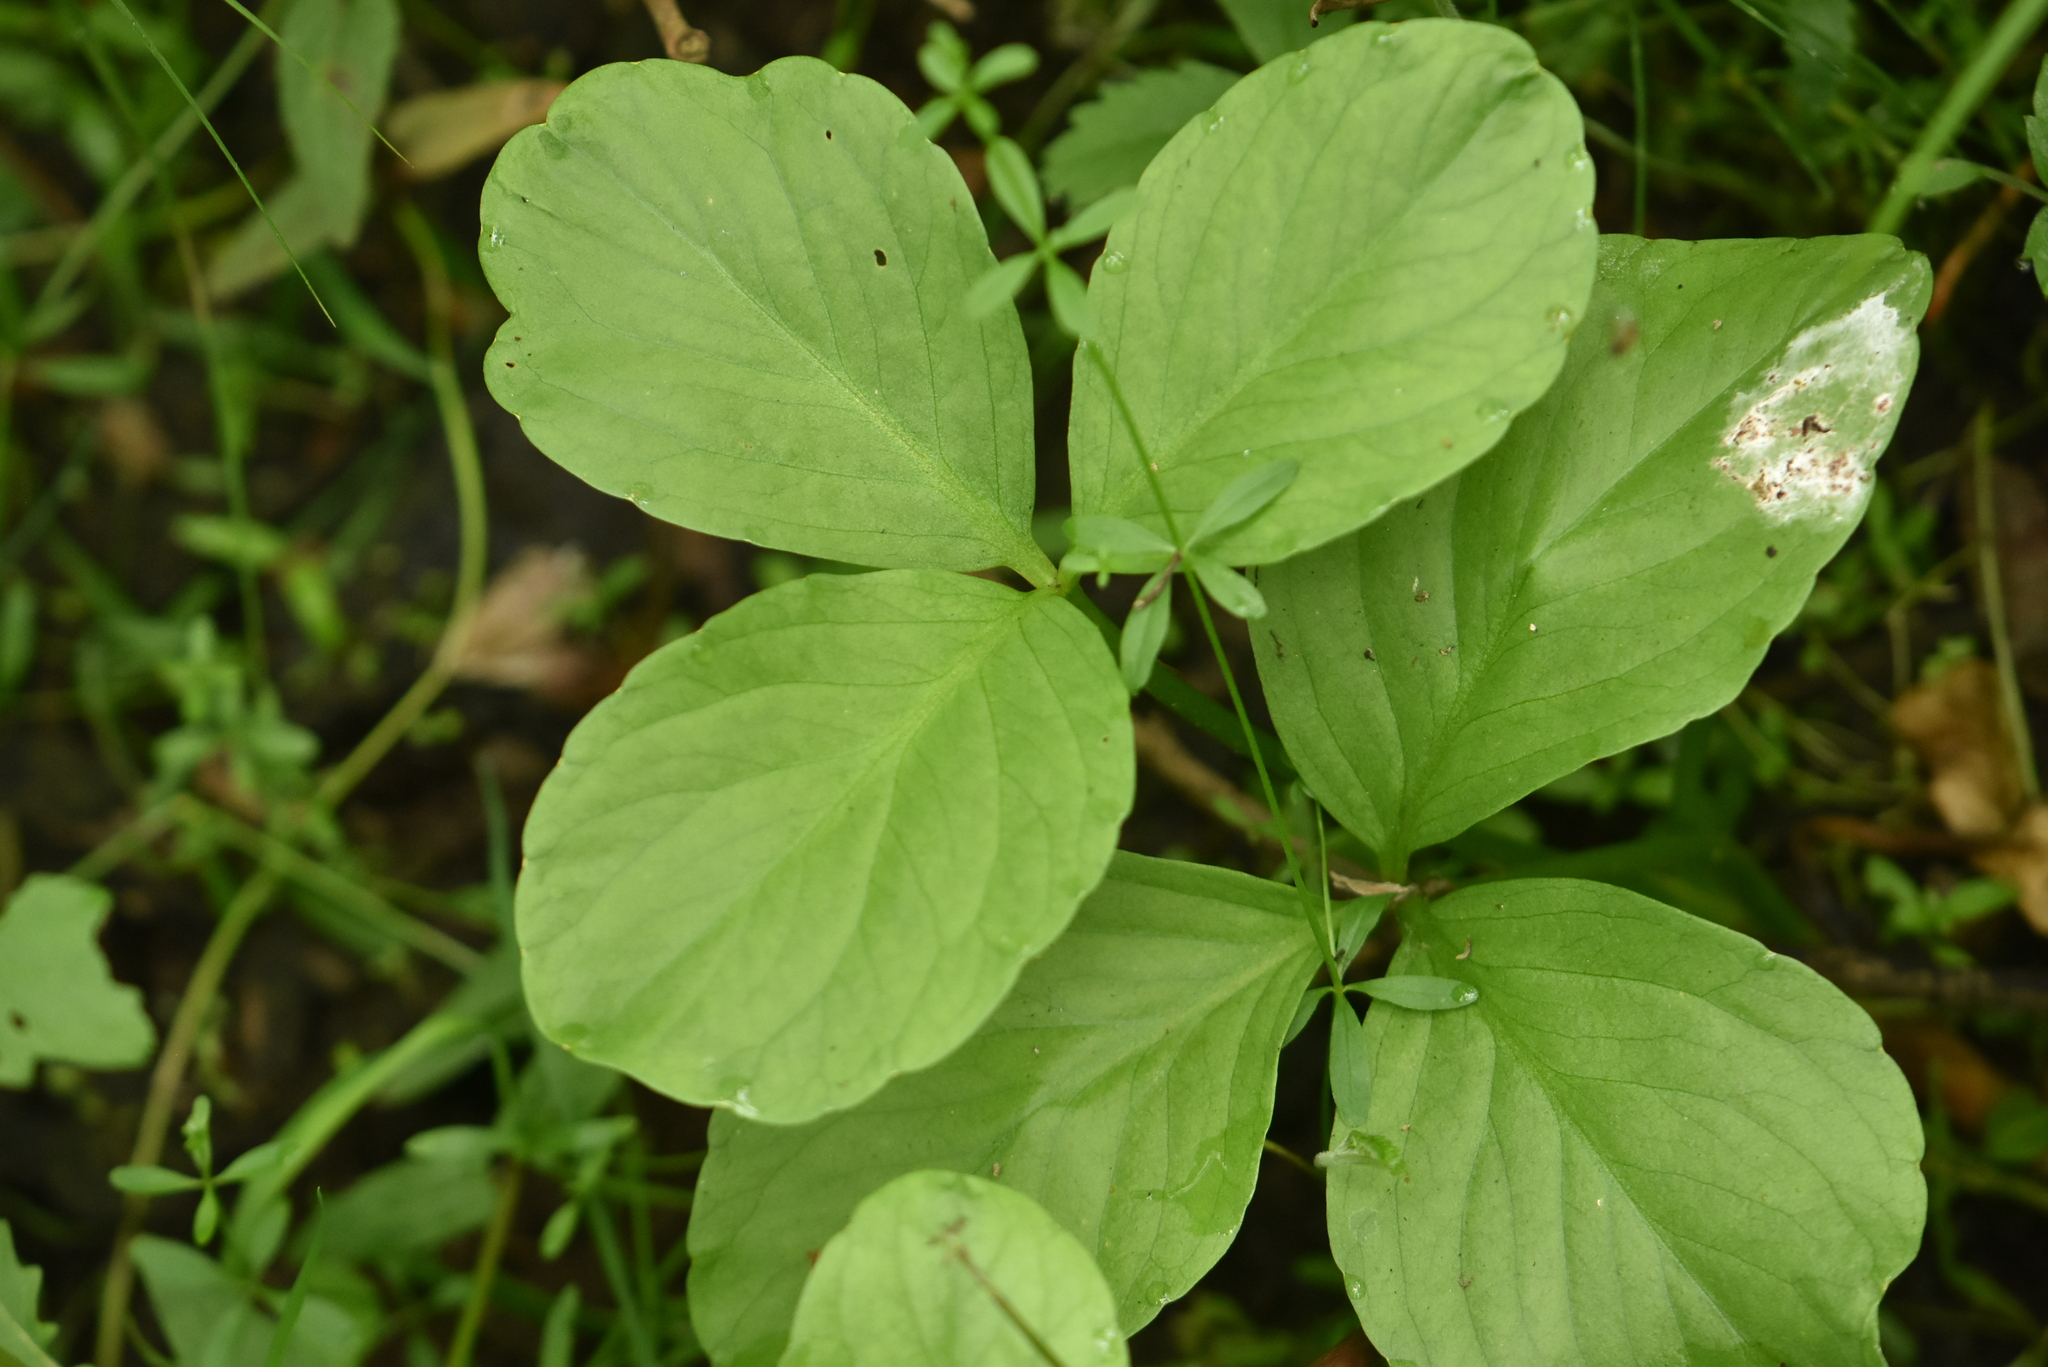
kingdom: Plantae
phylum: Tracheophyta
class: Magnoliopsida
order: Asterales
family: Menyanthaceae
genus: Menyanthes
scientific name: Menyanthes trifoliata
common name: Bogbean
